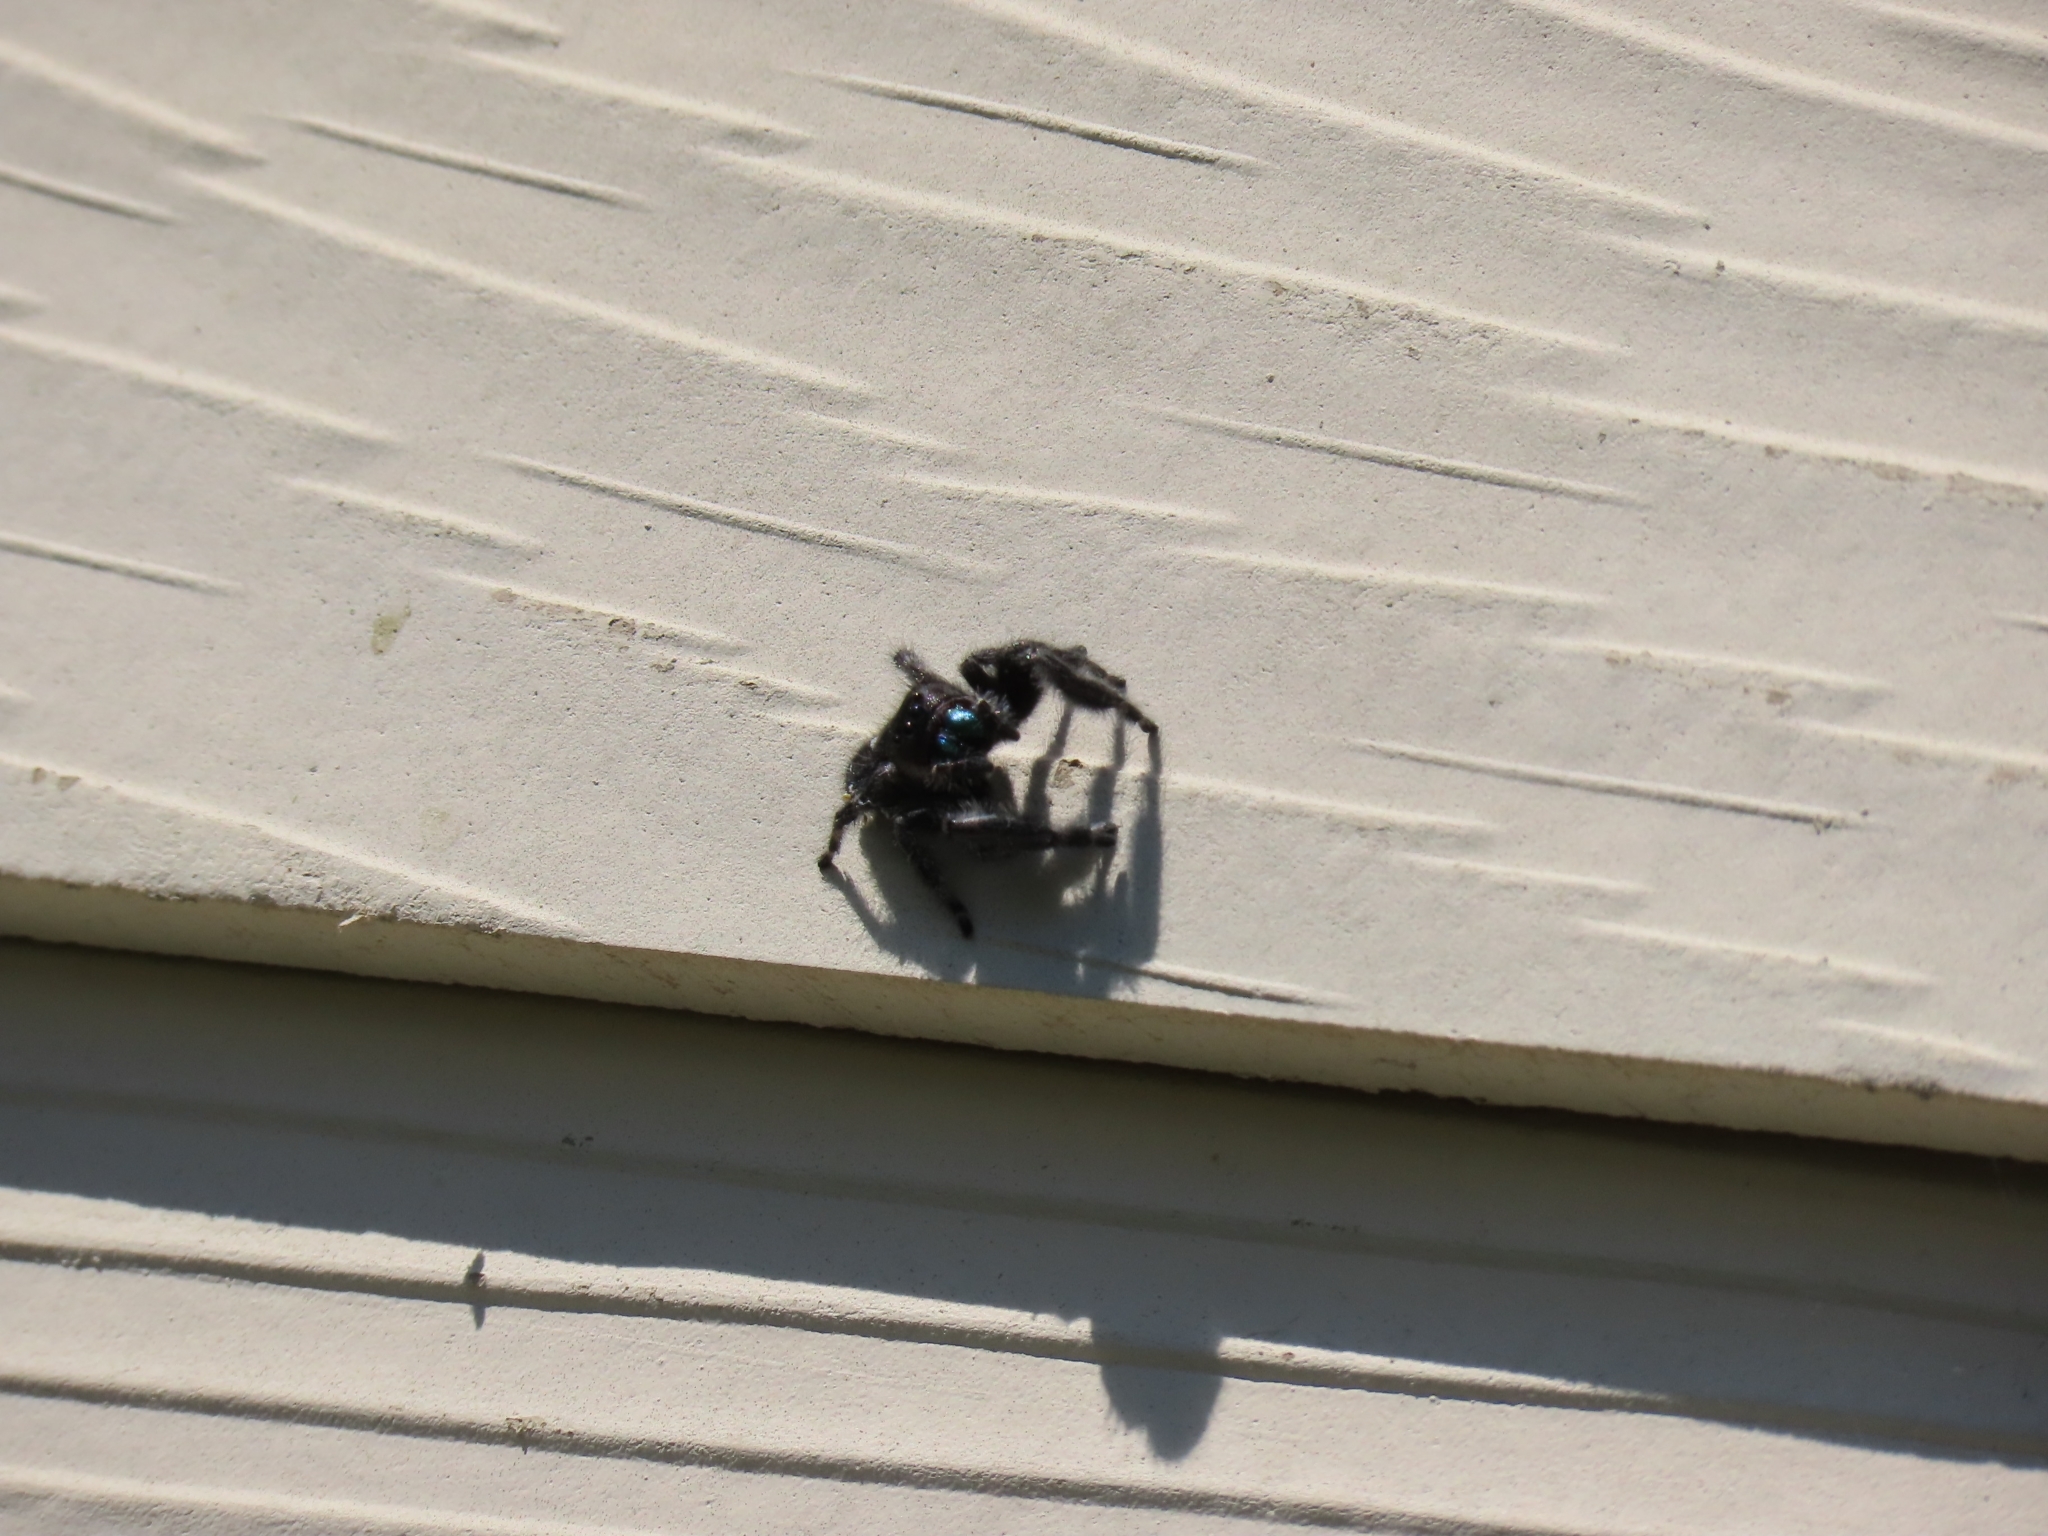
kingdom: Animalia
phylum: Arthropoda
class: Arachnida
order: Araneae
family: Salticidae
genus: Phidippus
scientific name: Phidippus audax
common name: Bold jumper
